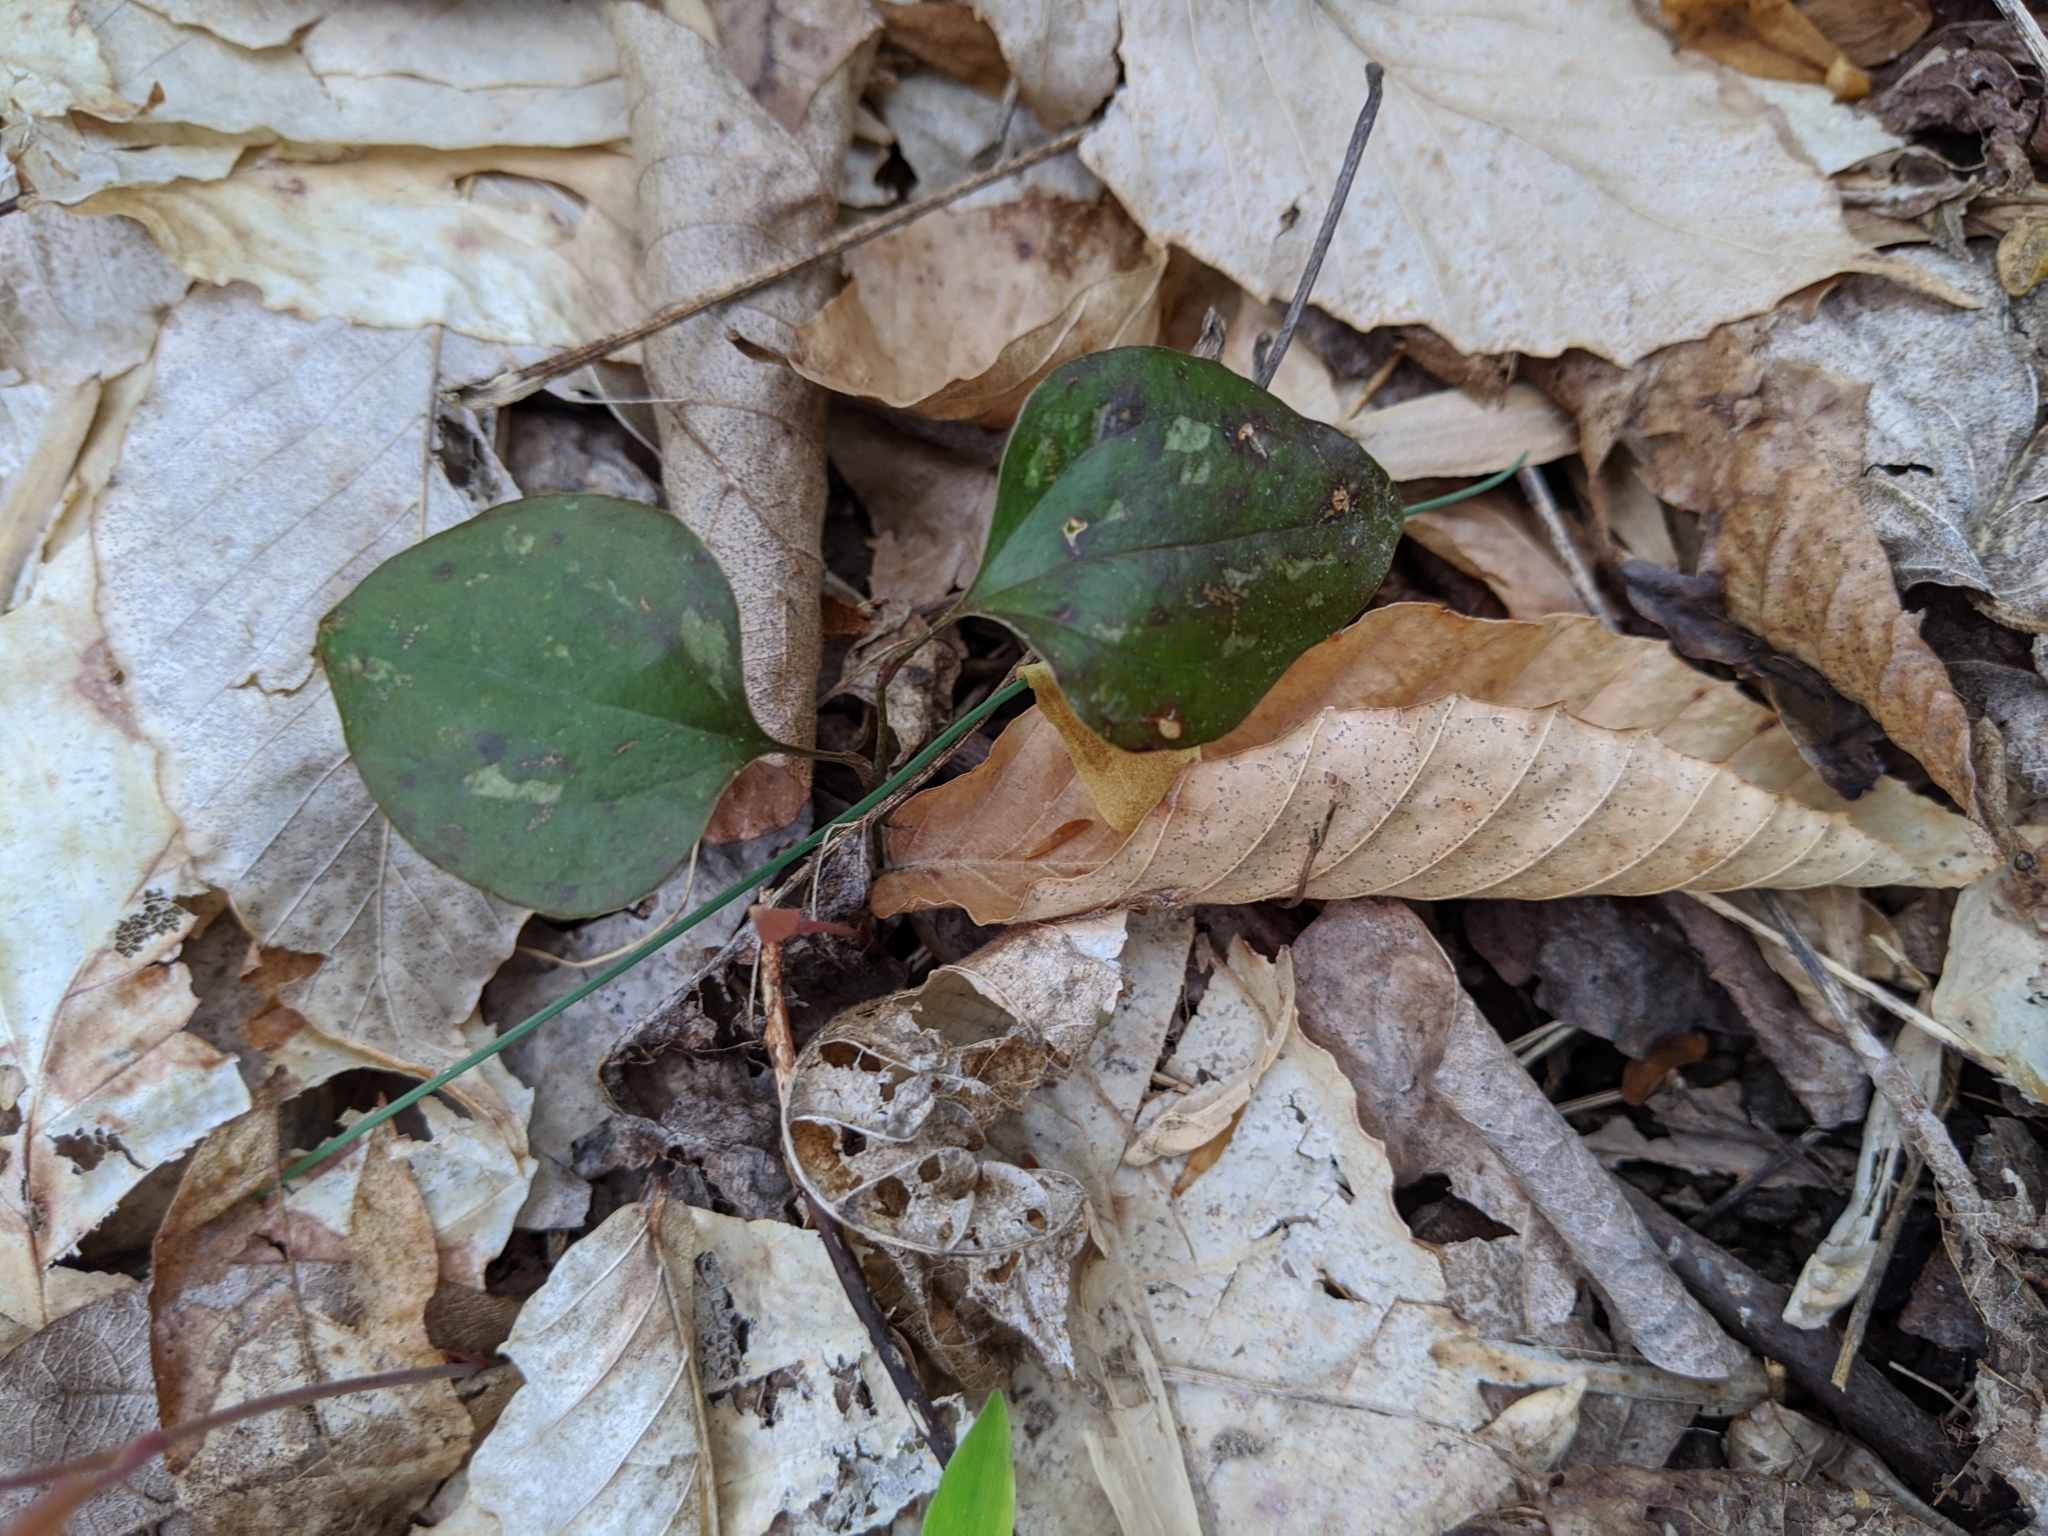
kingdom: Plantae
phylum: Tracheophyta
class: Liliopsida
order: Liliales
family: Smilacaceae
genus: Smilax
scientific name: Smilax glauca
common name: Cat greenbrier
